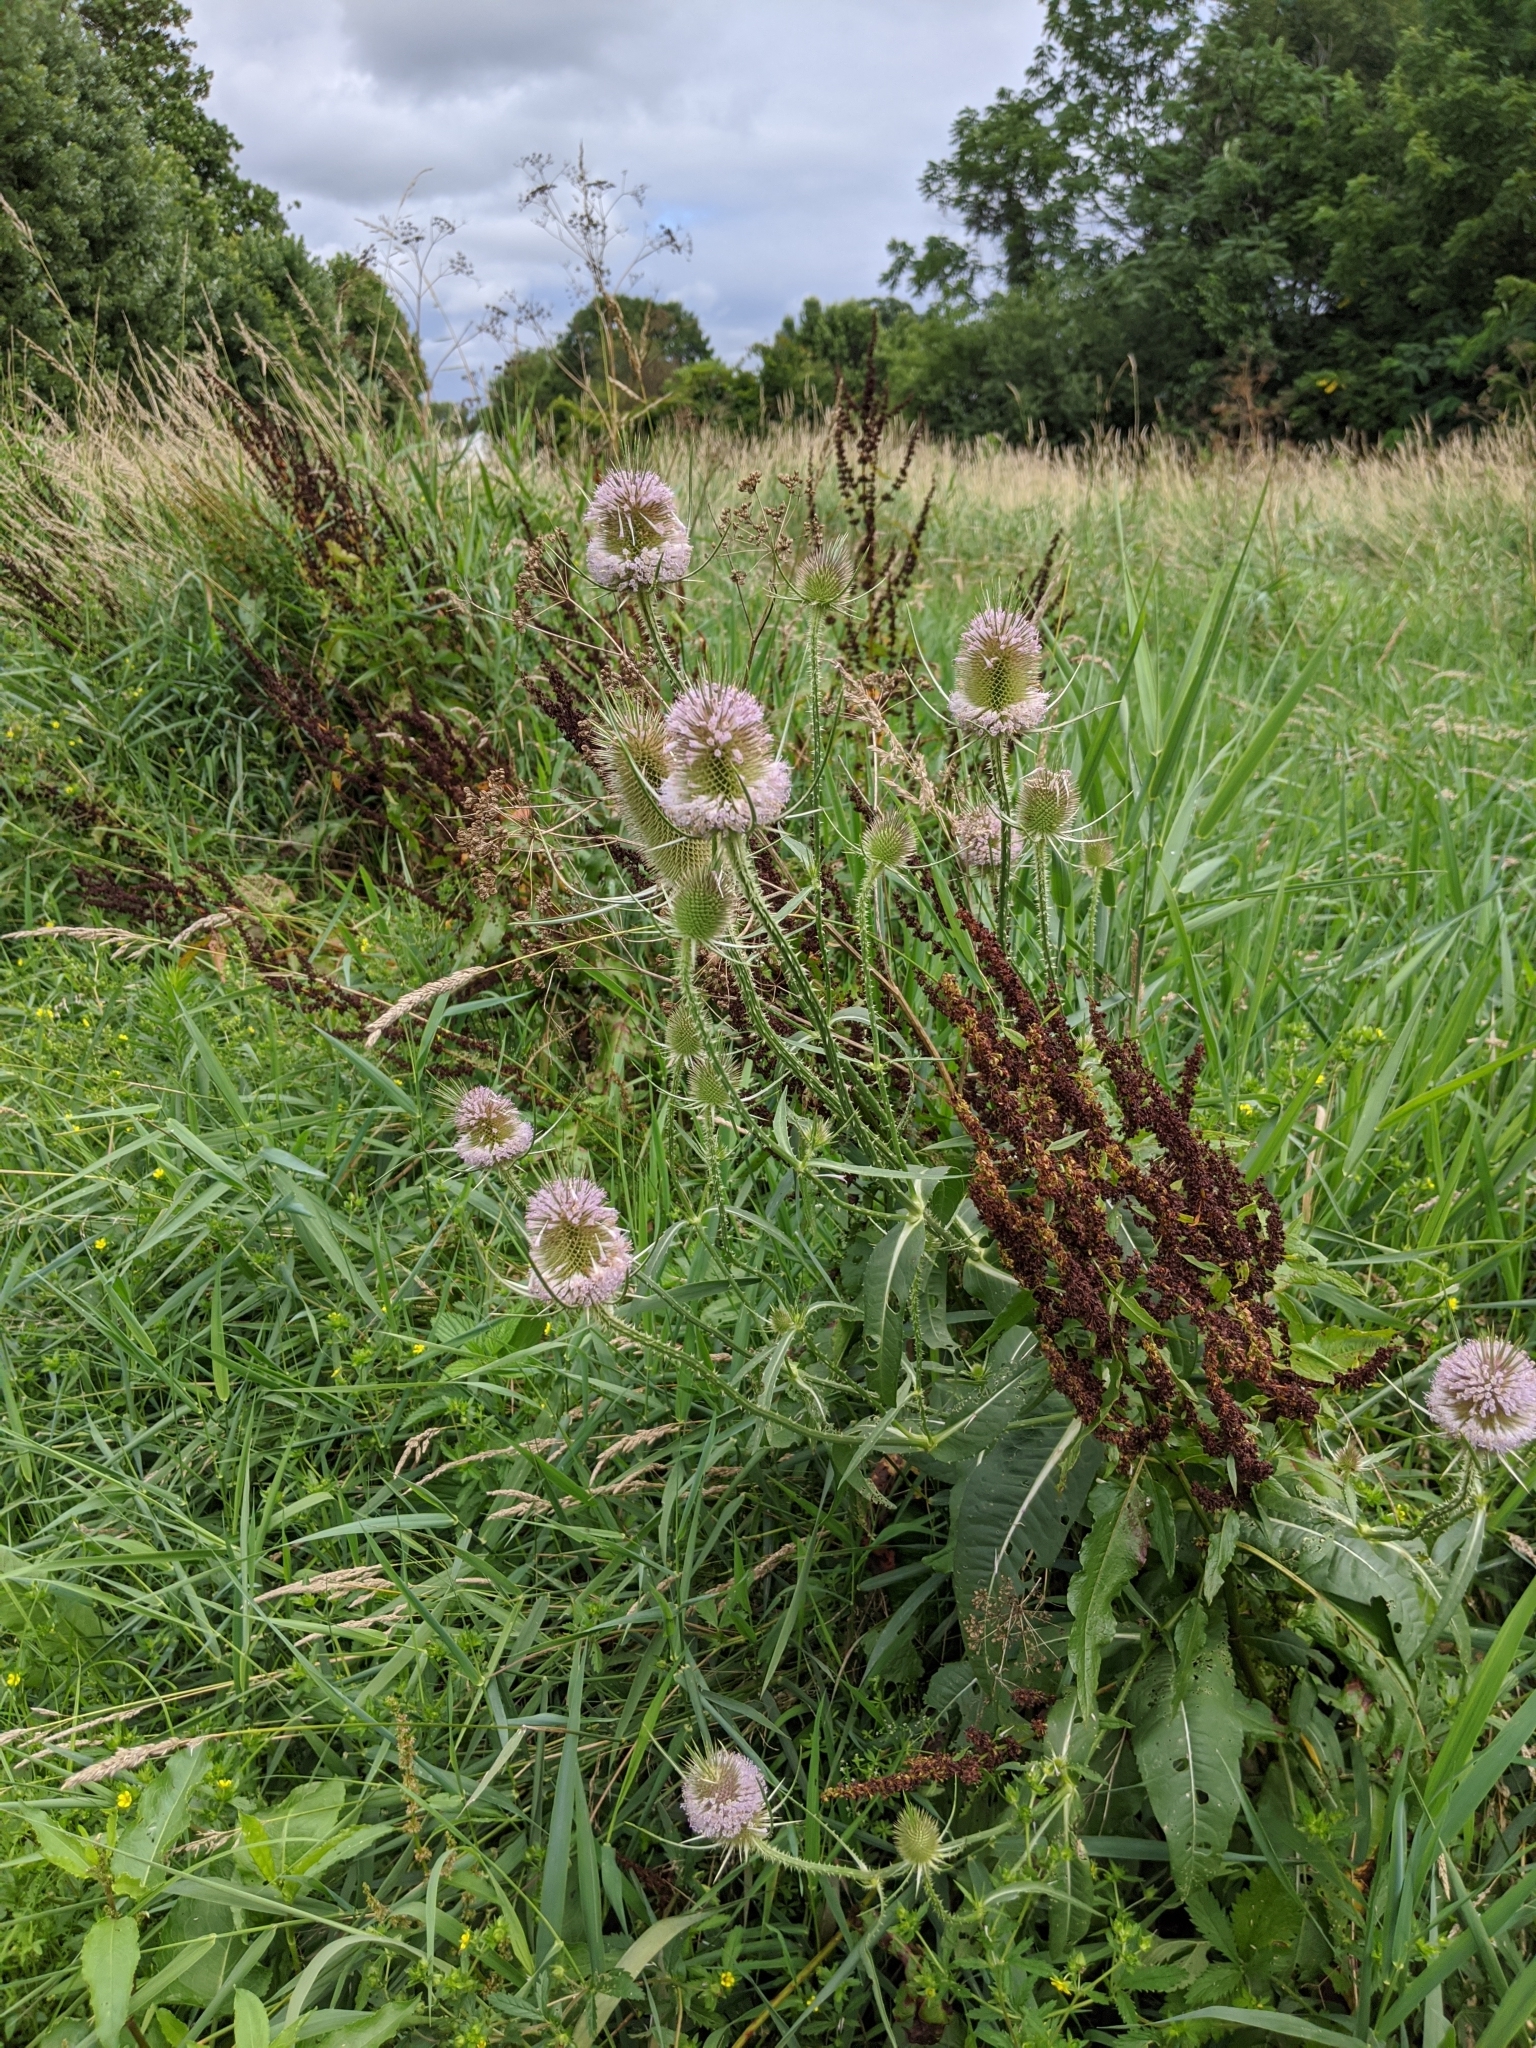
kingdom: Plantae
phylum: Tracheophyta
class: Magnoliopsida
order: Dipsacales
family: Caprifoliaceae
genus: Dipsacus
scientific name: Dipsacus fullonum
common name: Teasel
